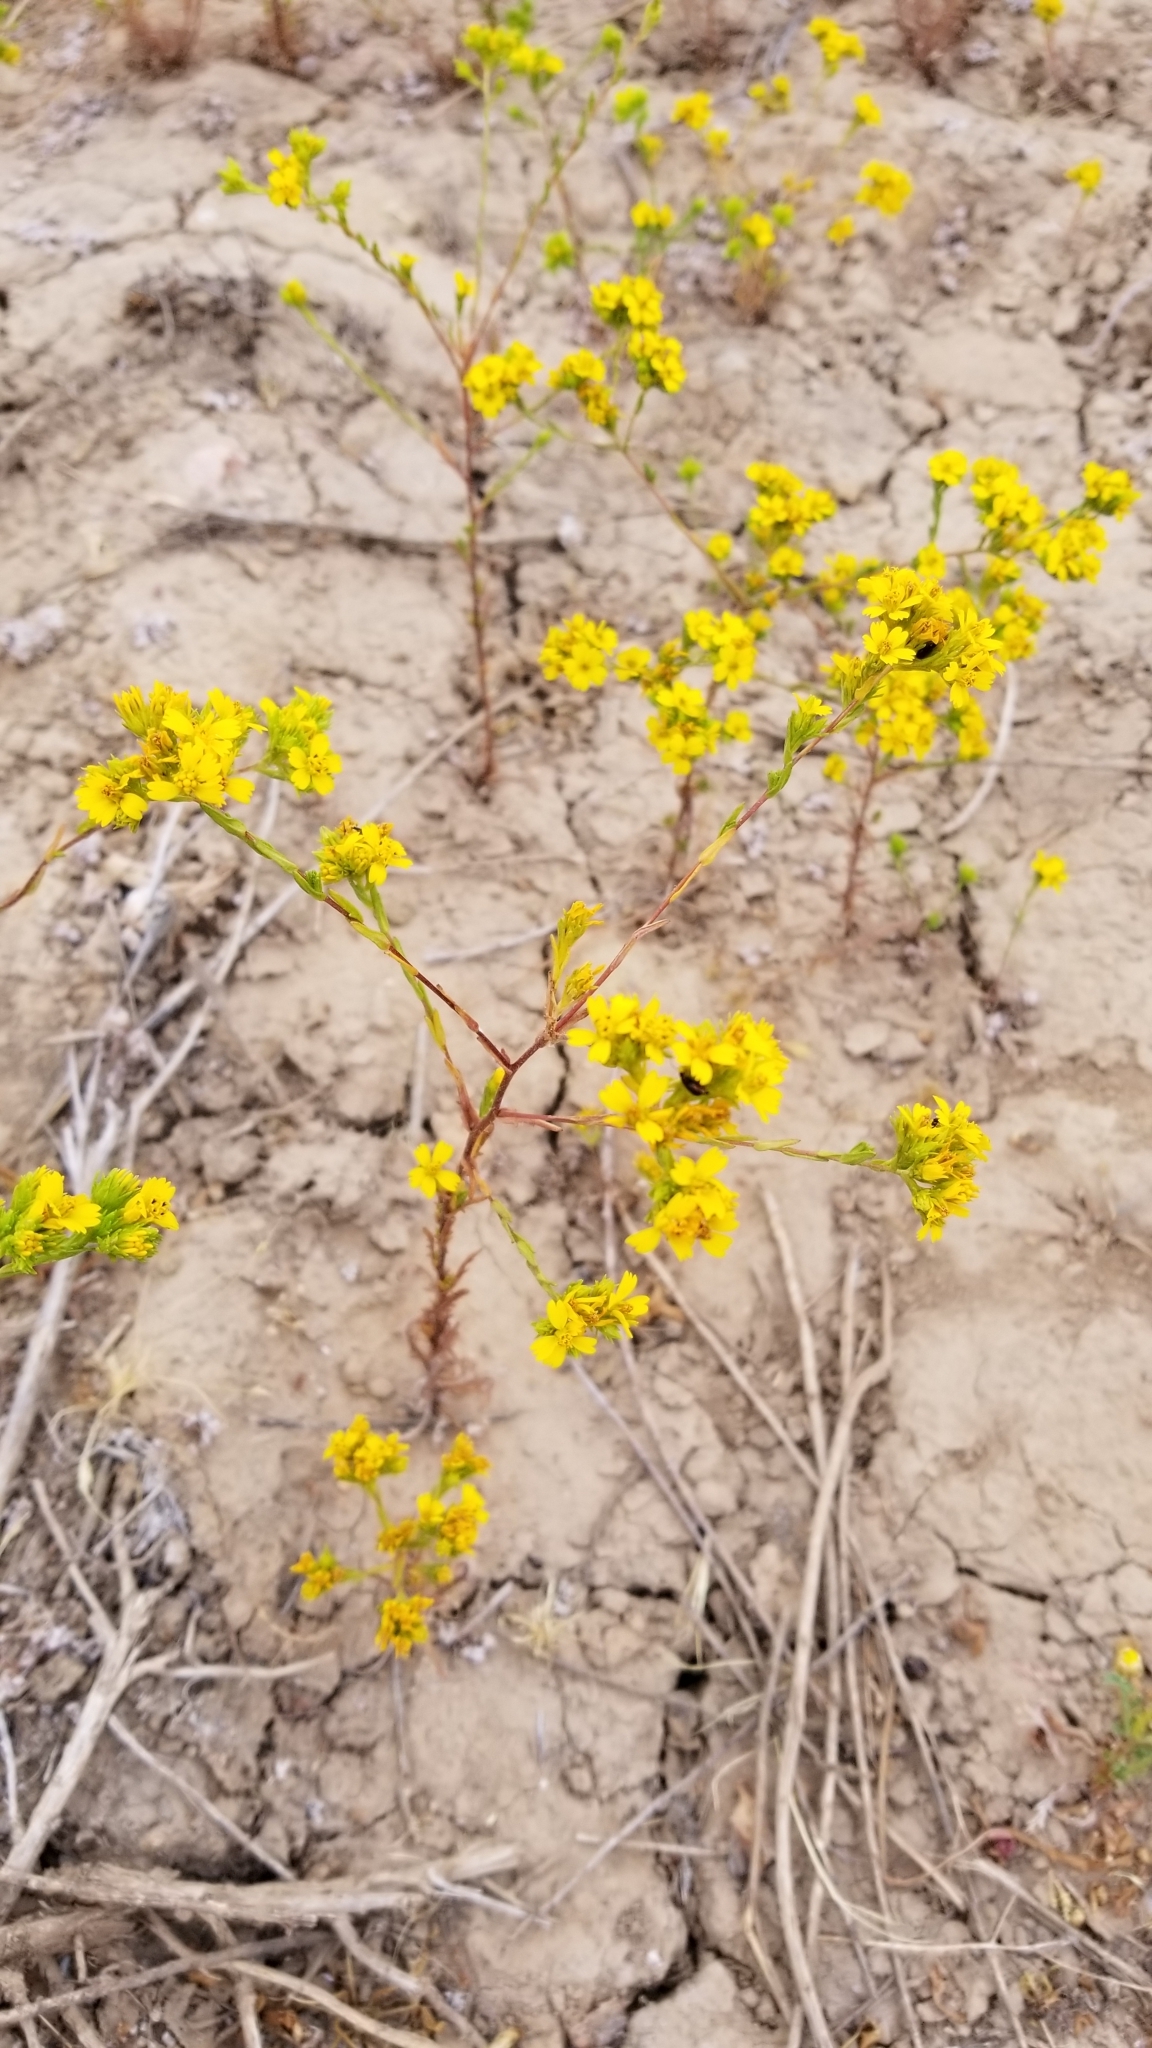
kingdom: Plantae
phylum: Tracheophyta
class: Magnoliopsida
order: Asterales
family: Asteraceae
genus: Deinandra
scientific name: Deinandra fasciculata
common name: Clustered tarweed
